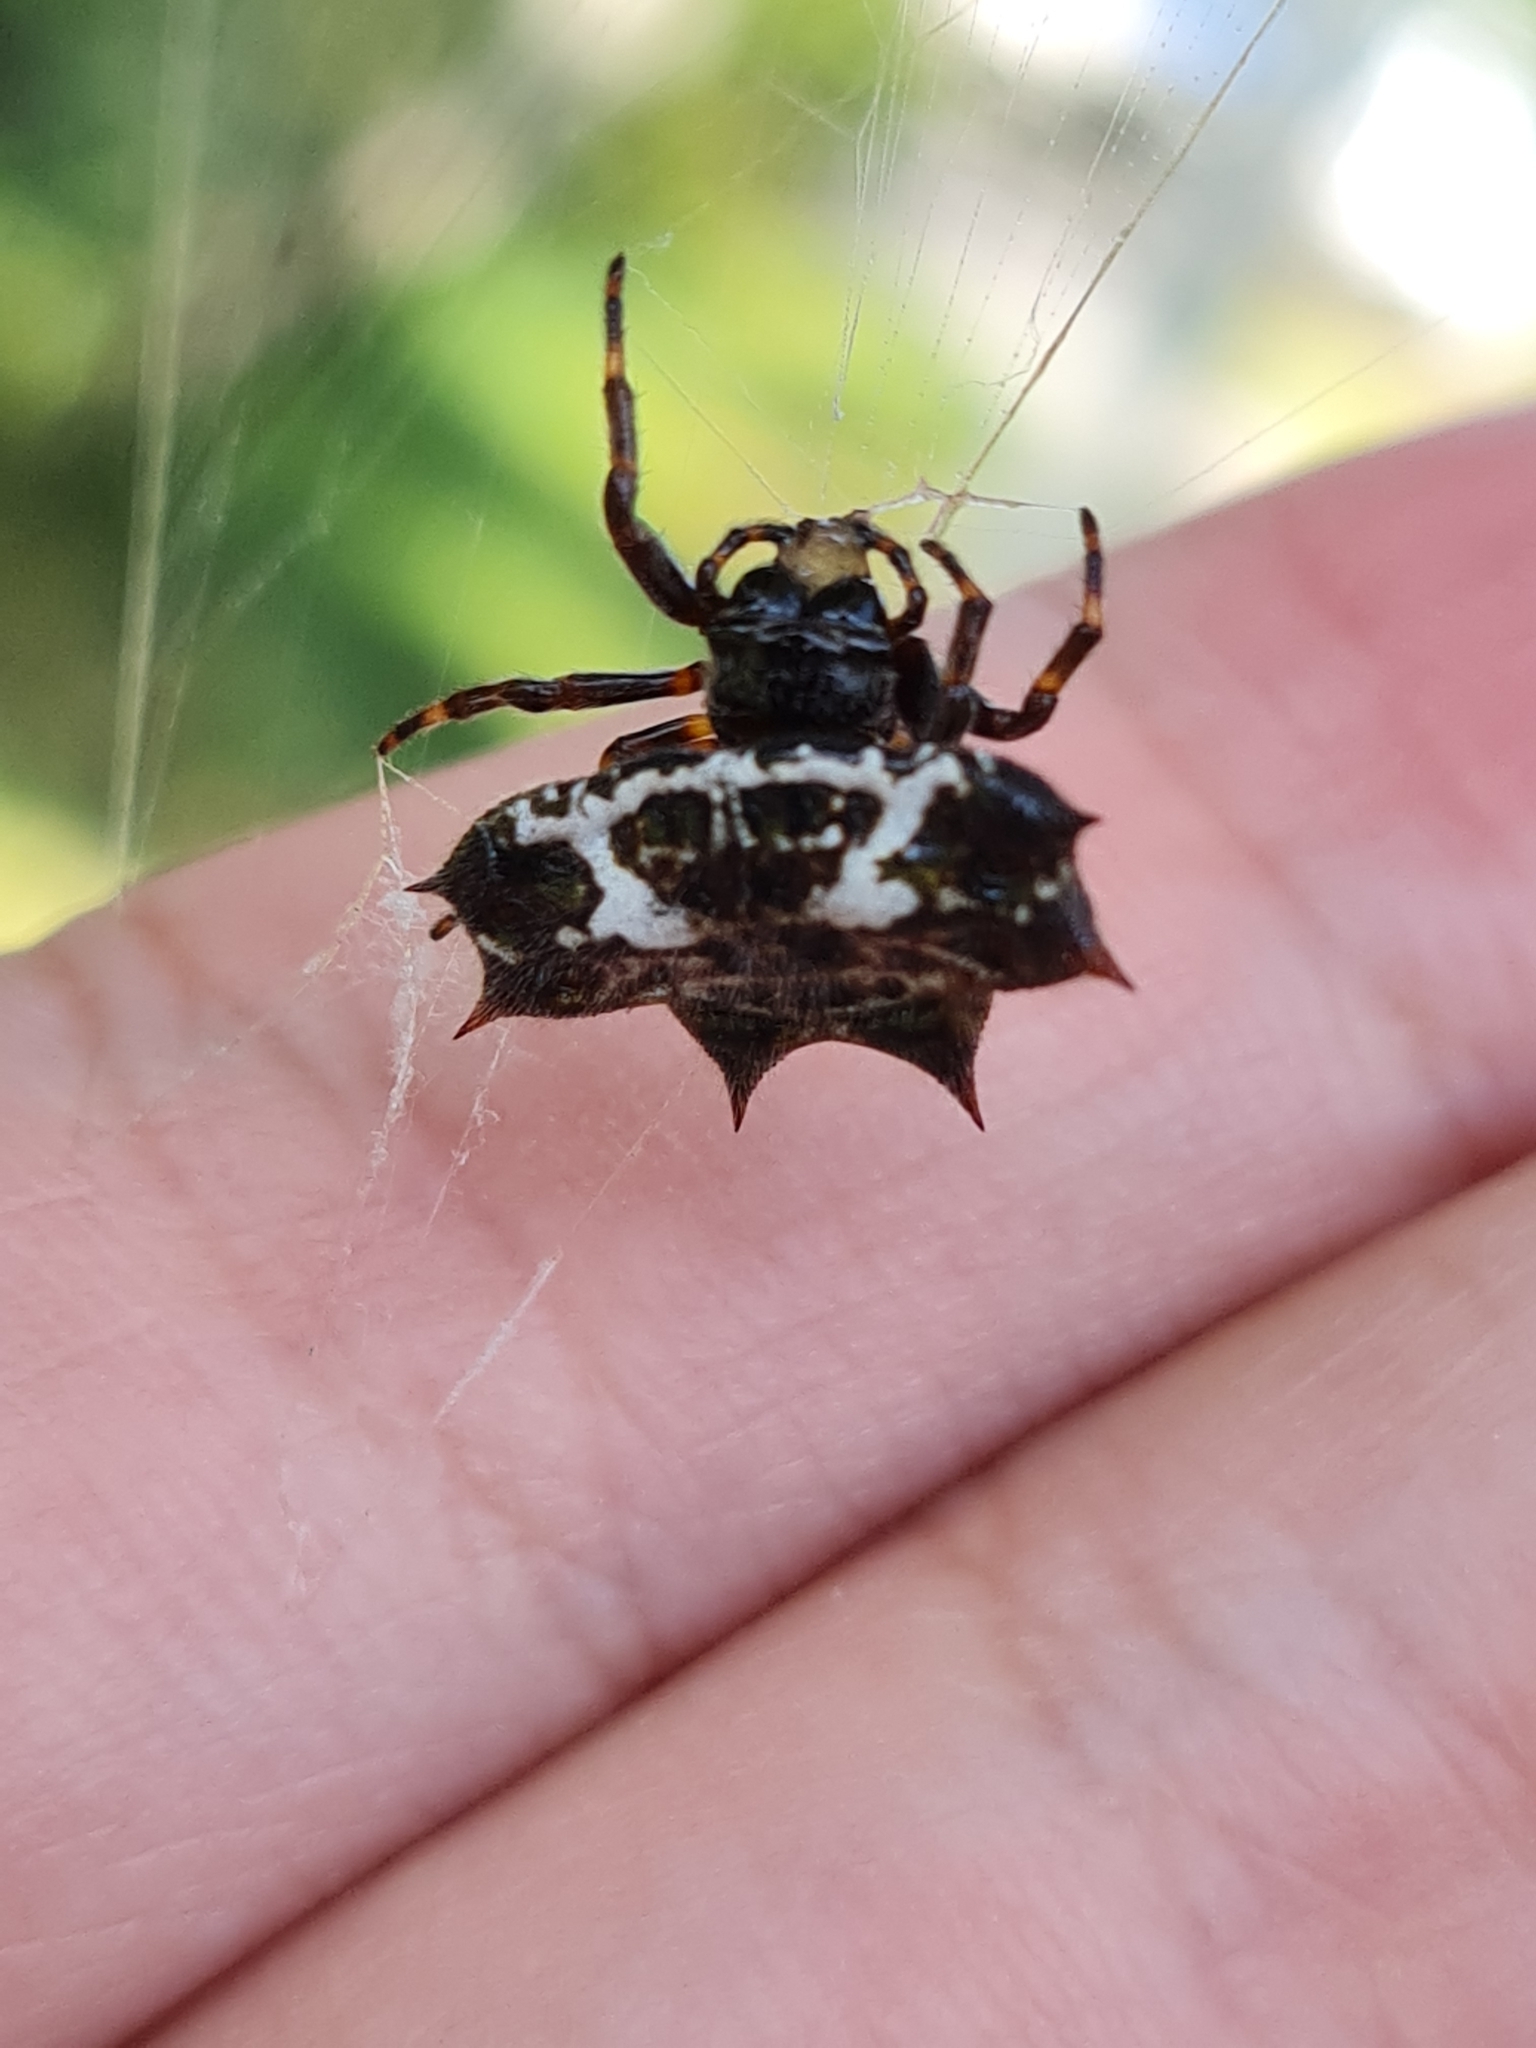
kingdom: Animalia
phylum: Arthropoda
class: Arachnida
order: Araneae
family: Araneidae
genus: Gasteracantha
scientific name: Gasteracantha cancriformis
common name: Orb weavers
